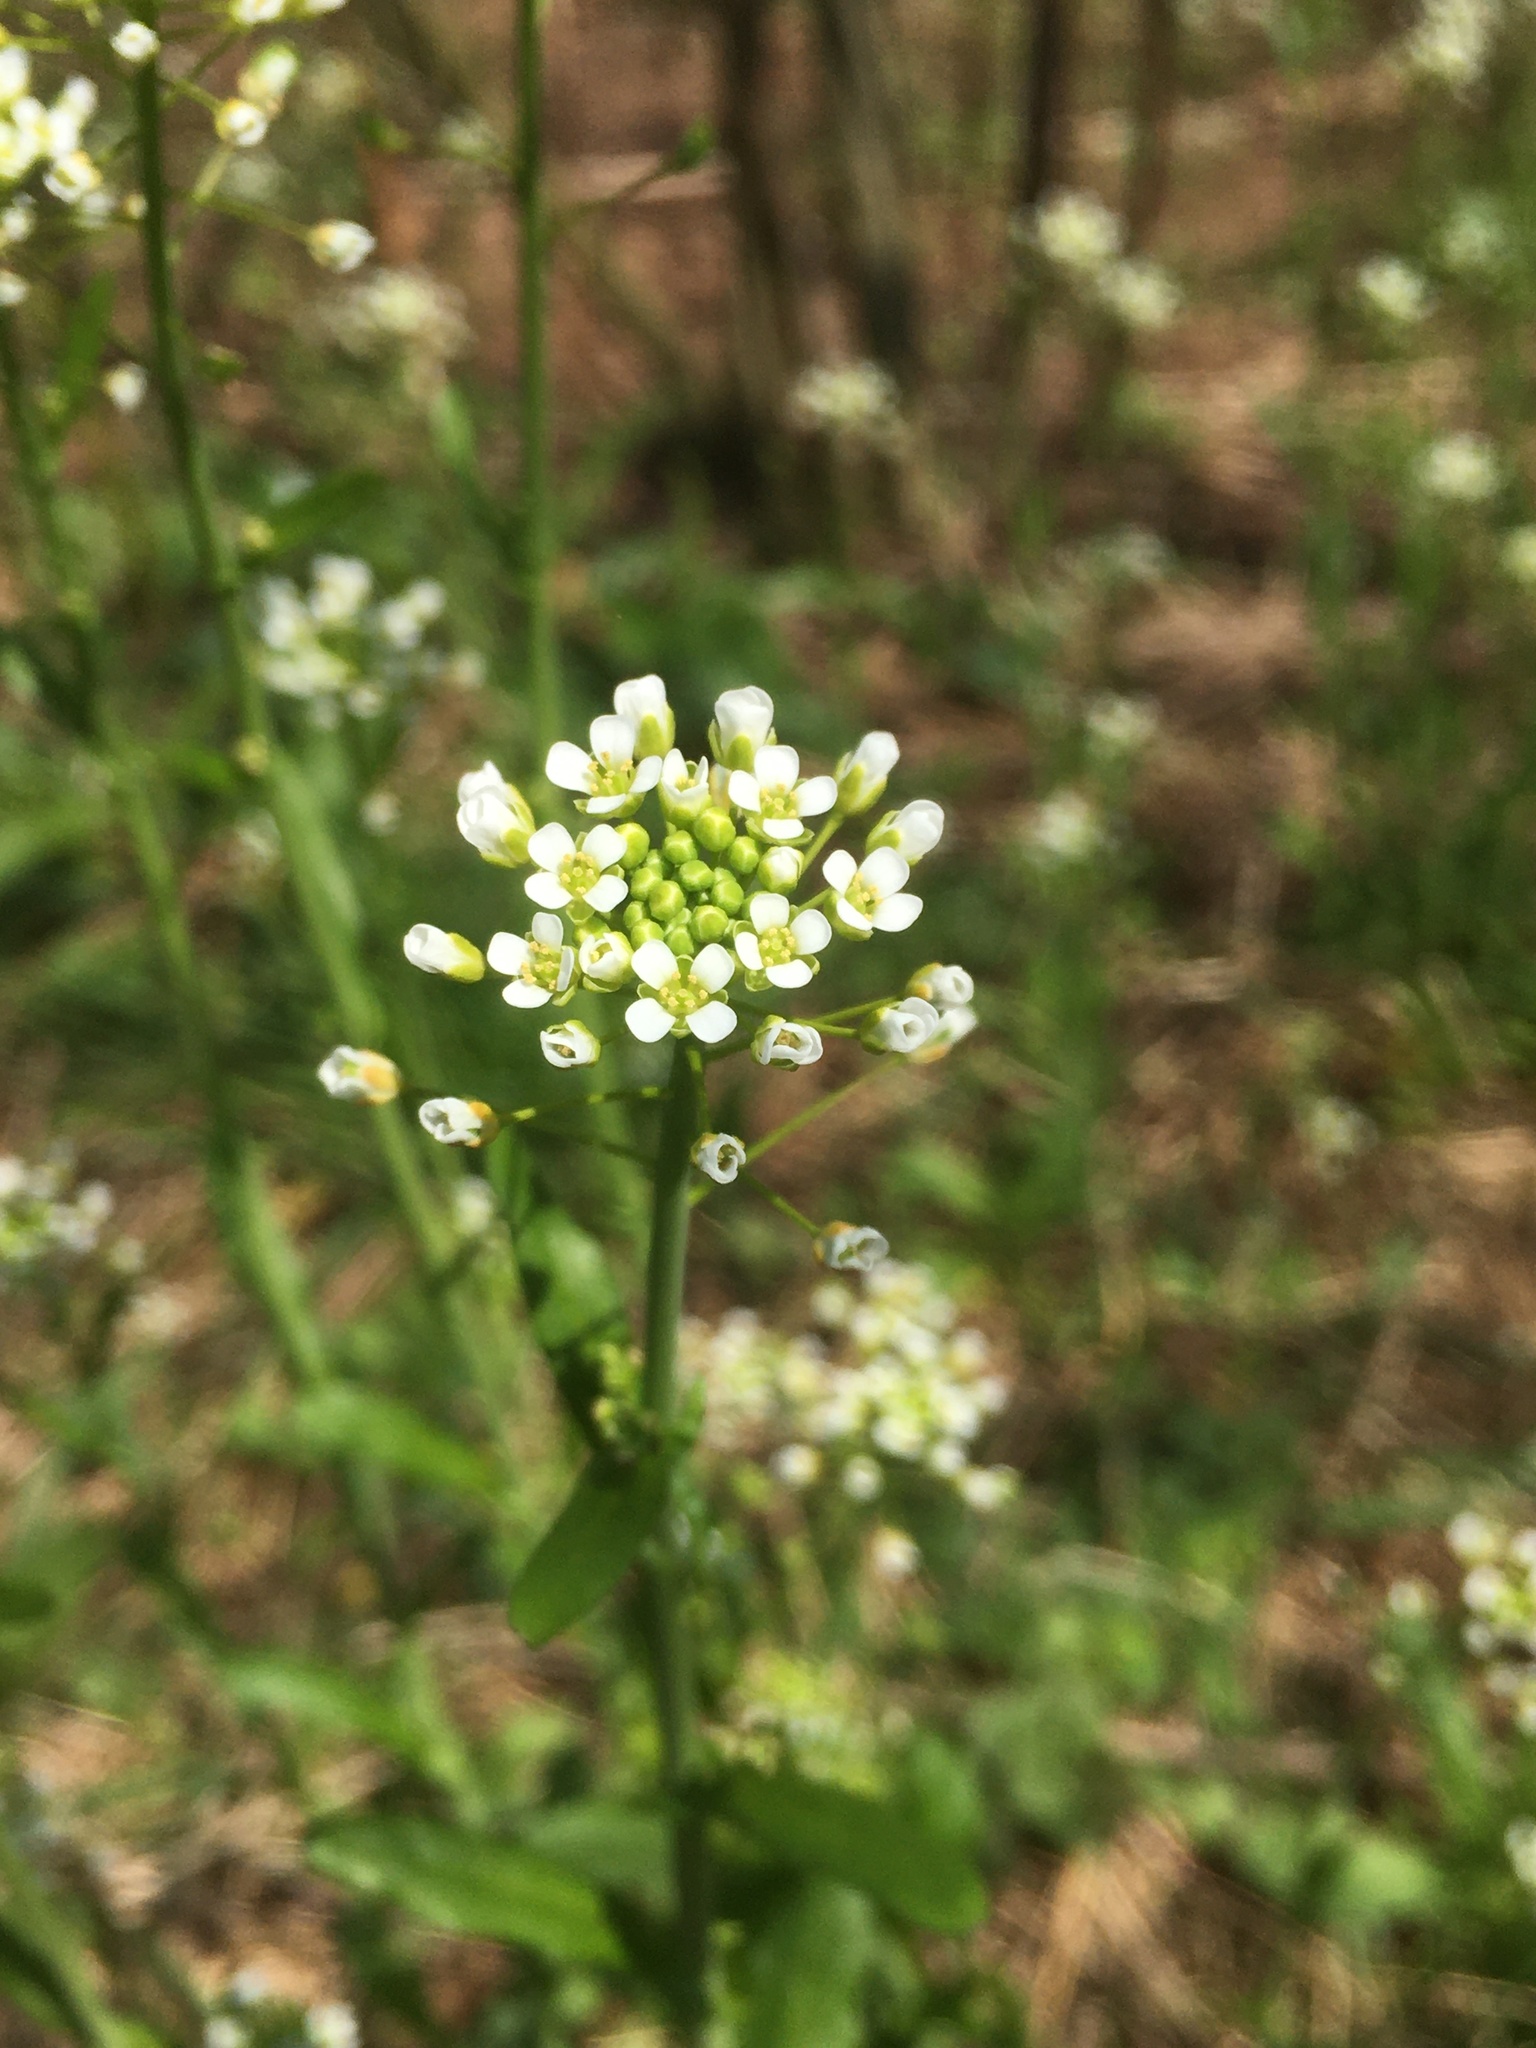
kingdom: Plantae
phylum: Tracheophyta
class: Magnoliopsida
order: Brassicales
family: Brassicaceae
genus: Mummenhoffia
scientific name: Mummenhoffia alliacea
